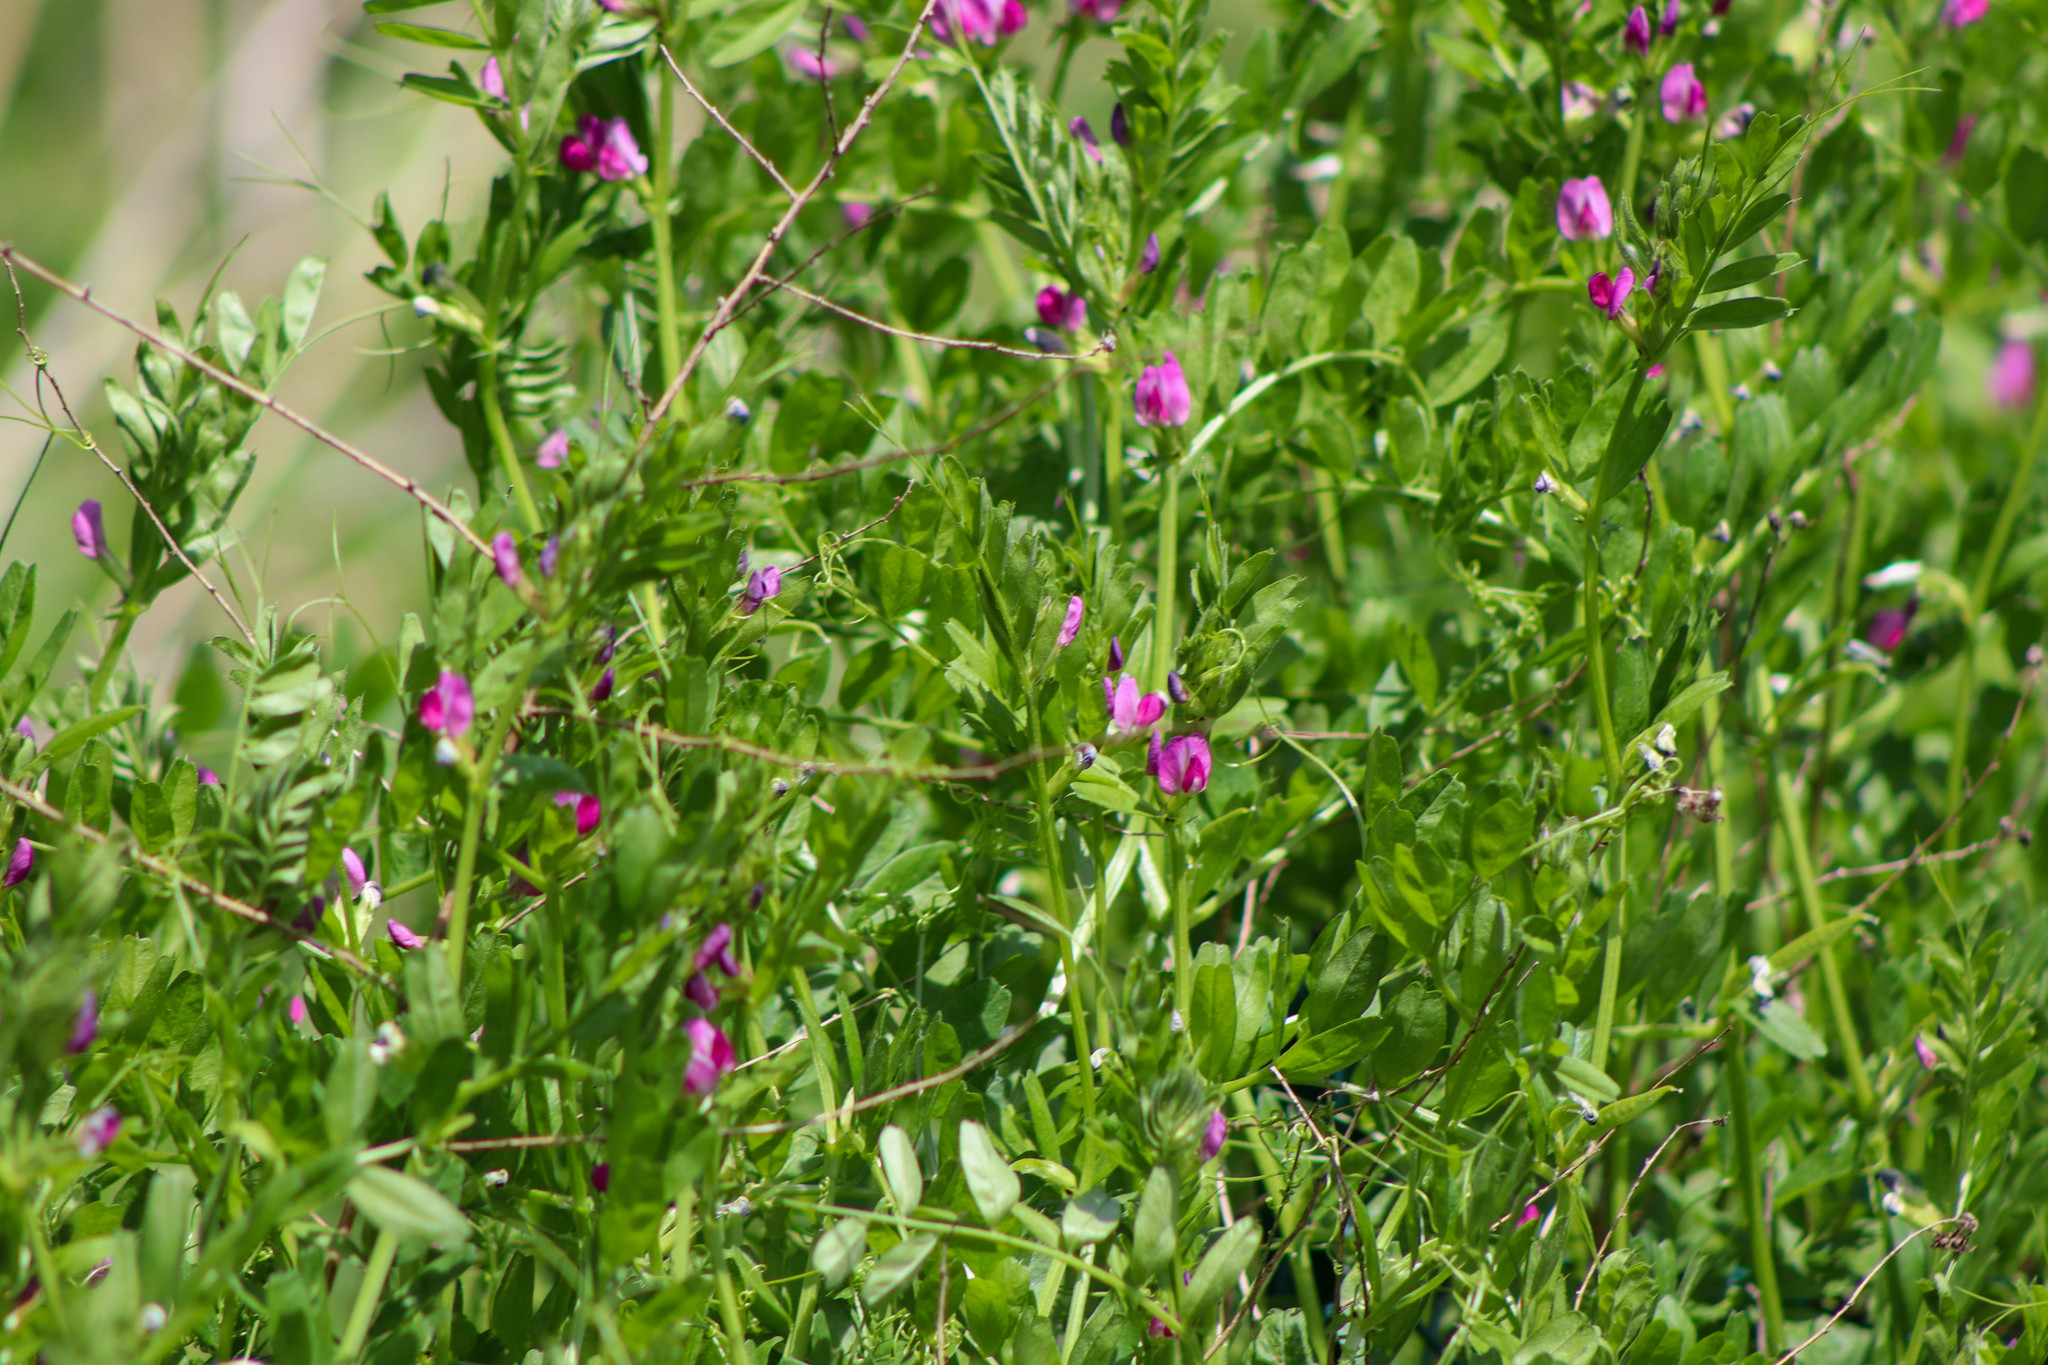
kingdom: Plantae
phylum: Tracheophyta
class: Magnoliopsida
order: Fabales
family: Fabaceae
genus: Vicia
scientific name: Vicia sativa
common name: Garden vetch
